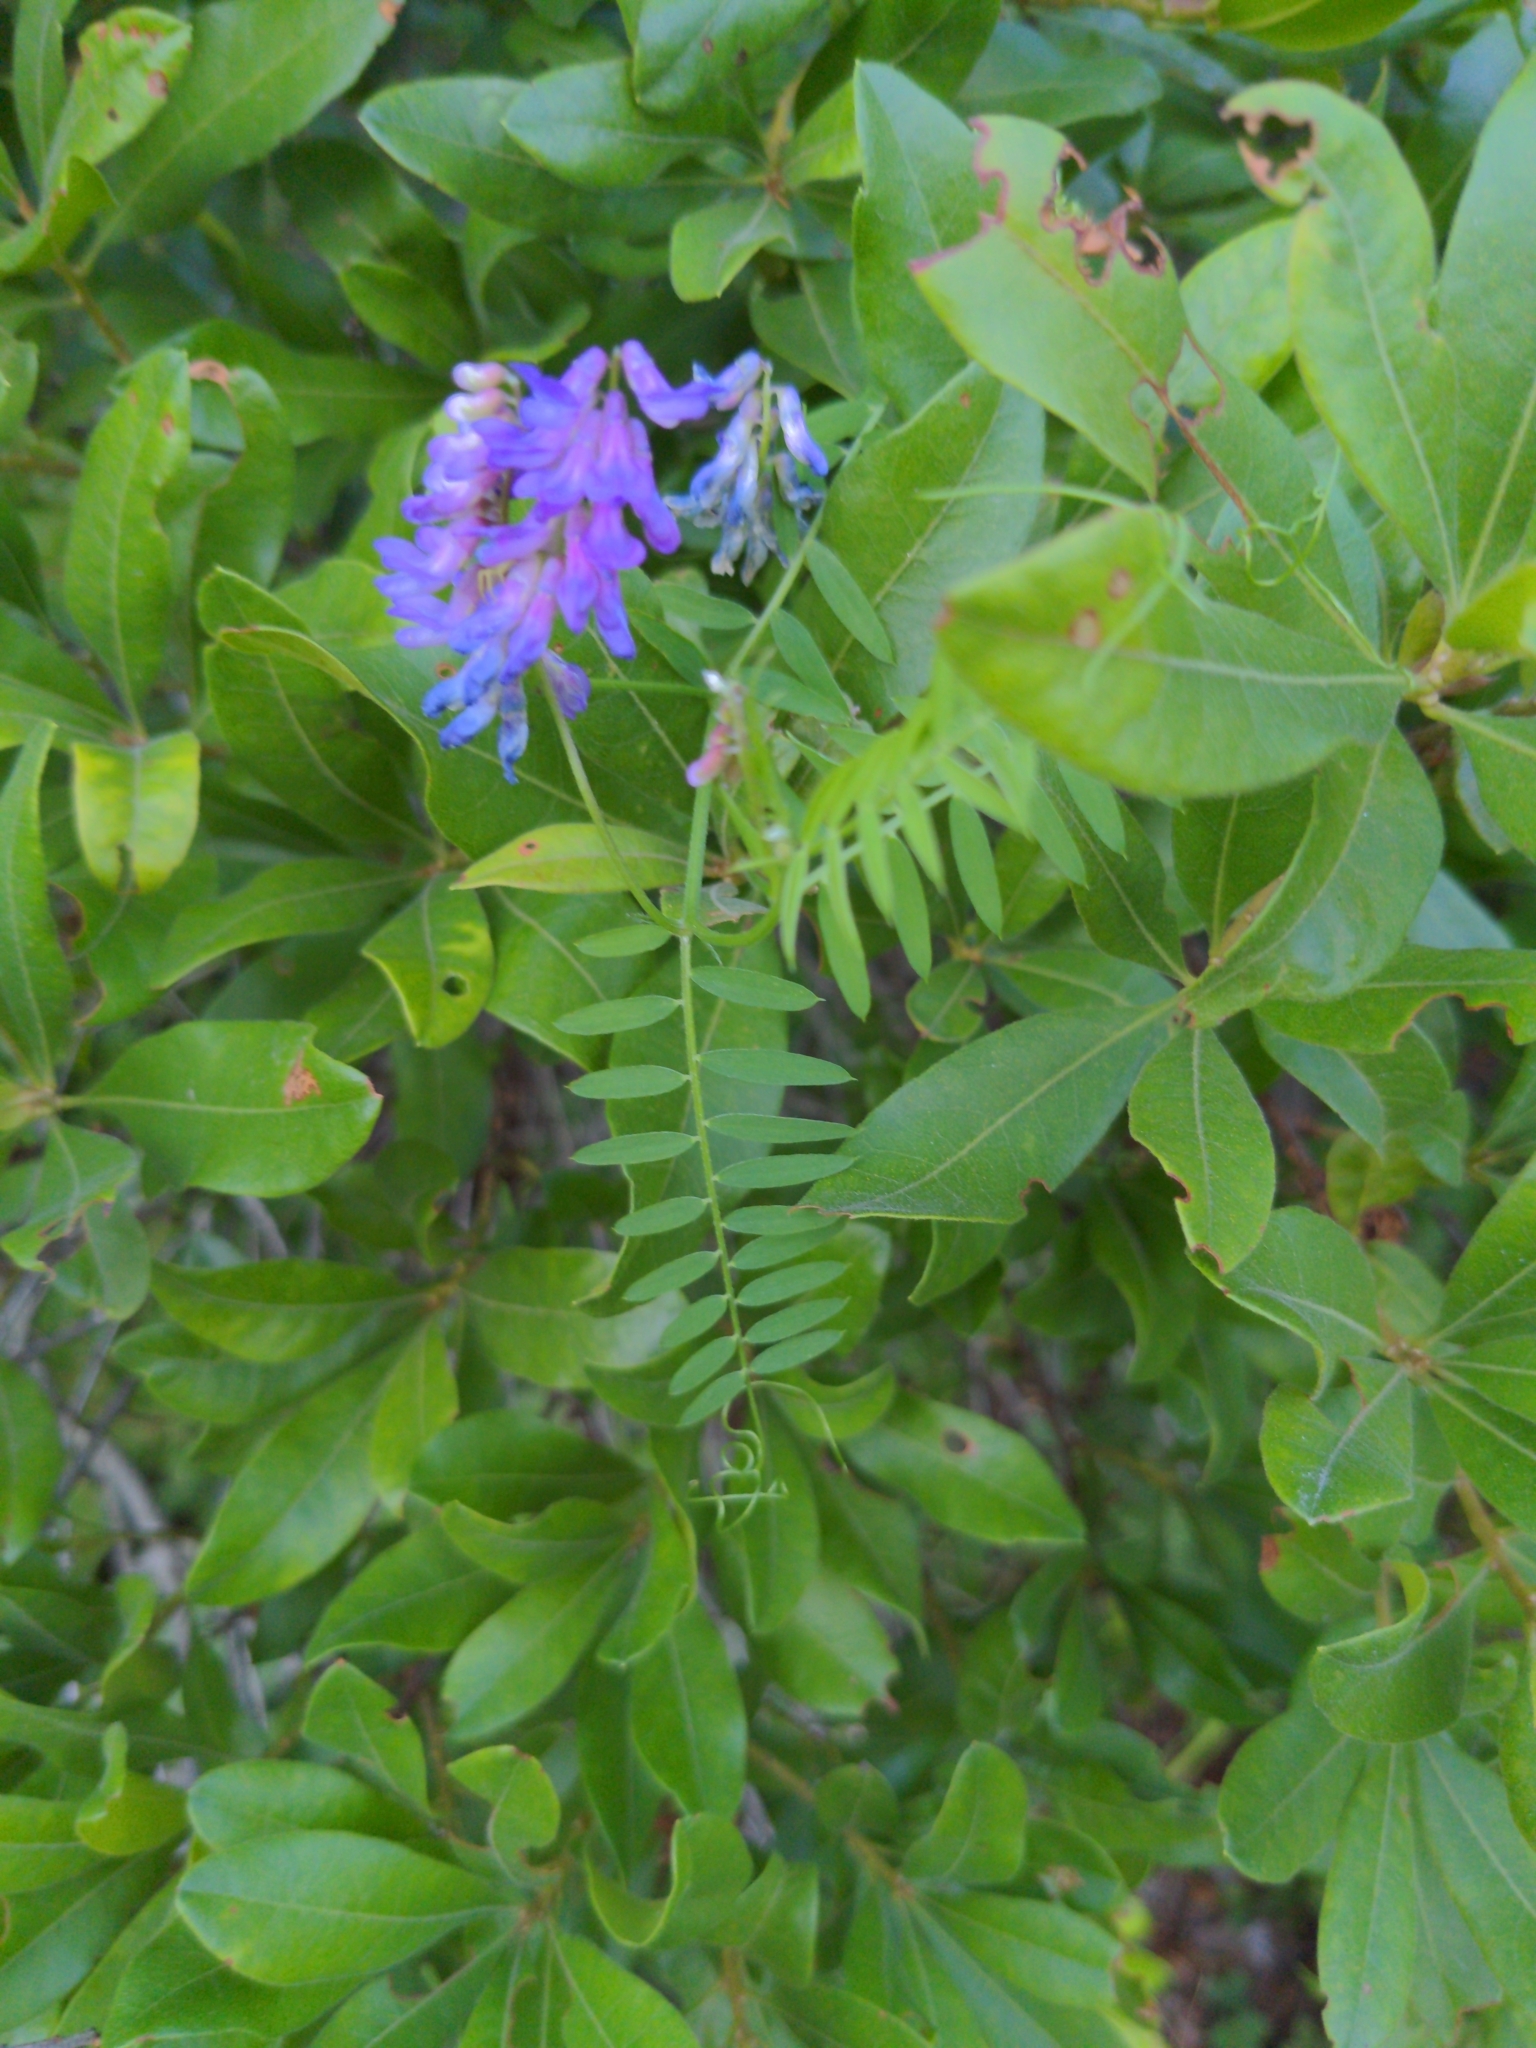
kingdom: Plantae
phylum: Tracheophyta
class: Magnoliopsida
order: Fabales
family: Fabaceae
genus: Vicia
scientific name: Vicia cracca
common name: Bird vetch
